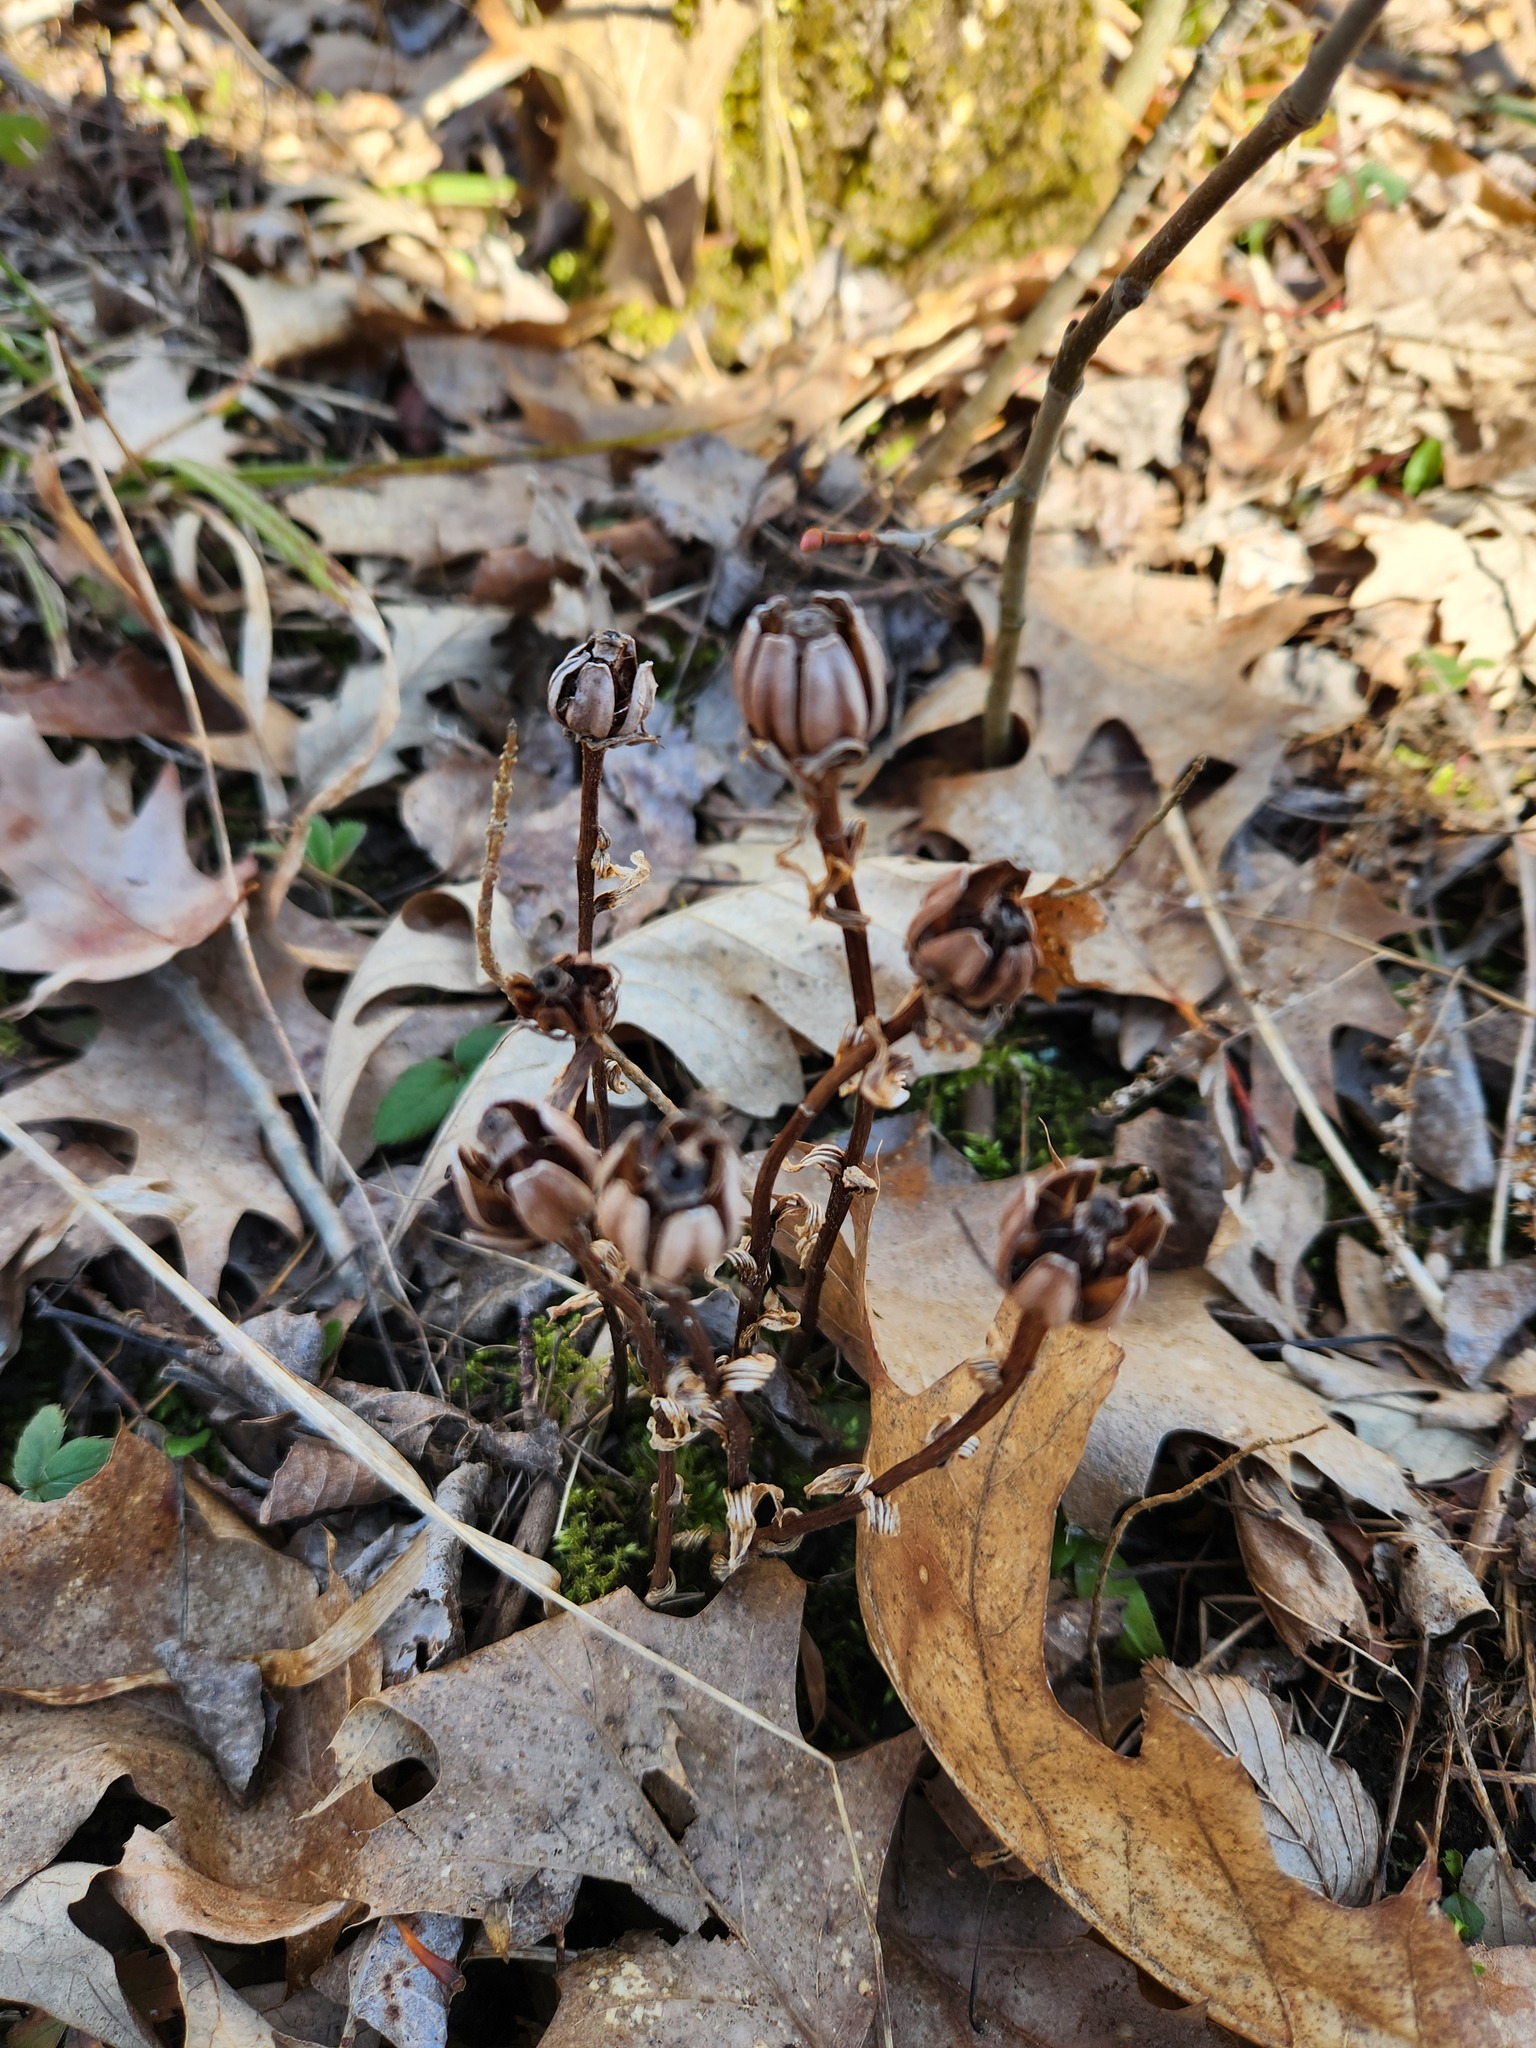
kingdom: Plantae
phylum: Tracheophyta
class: Magnoliopsida
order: Ericales
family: Ericaceae
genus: Monotropa
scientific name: Monotropa uniflora
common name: Convulsion root
